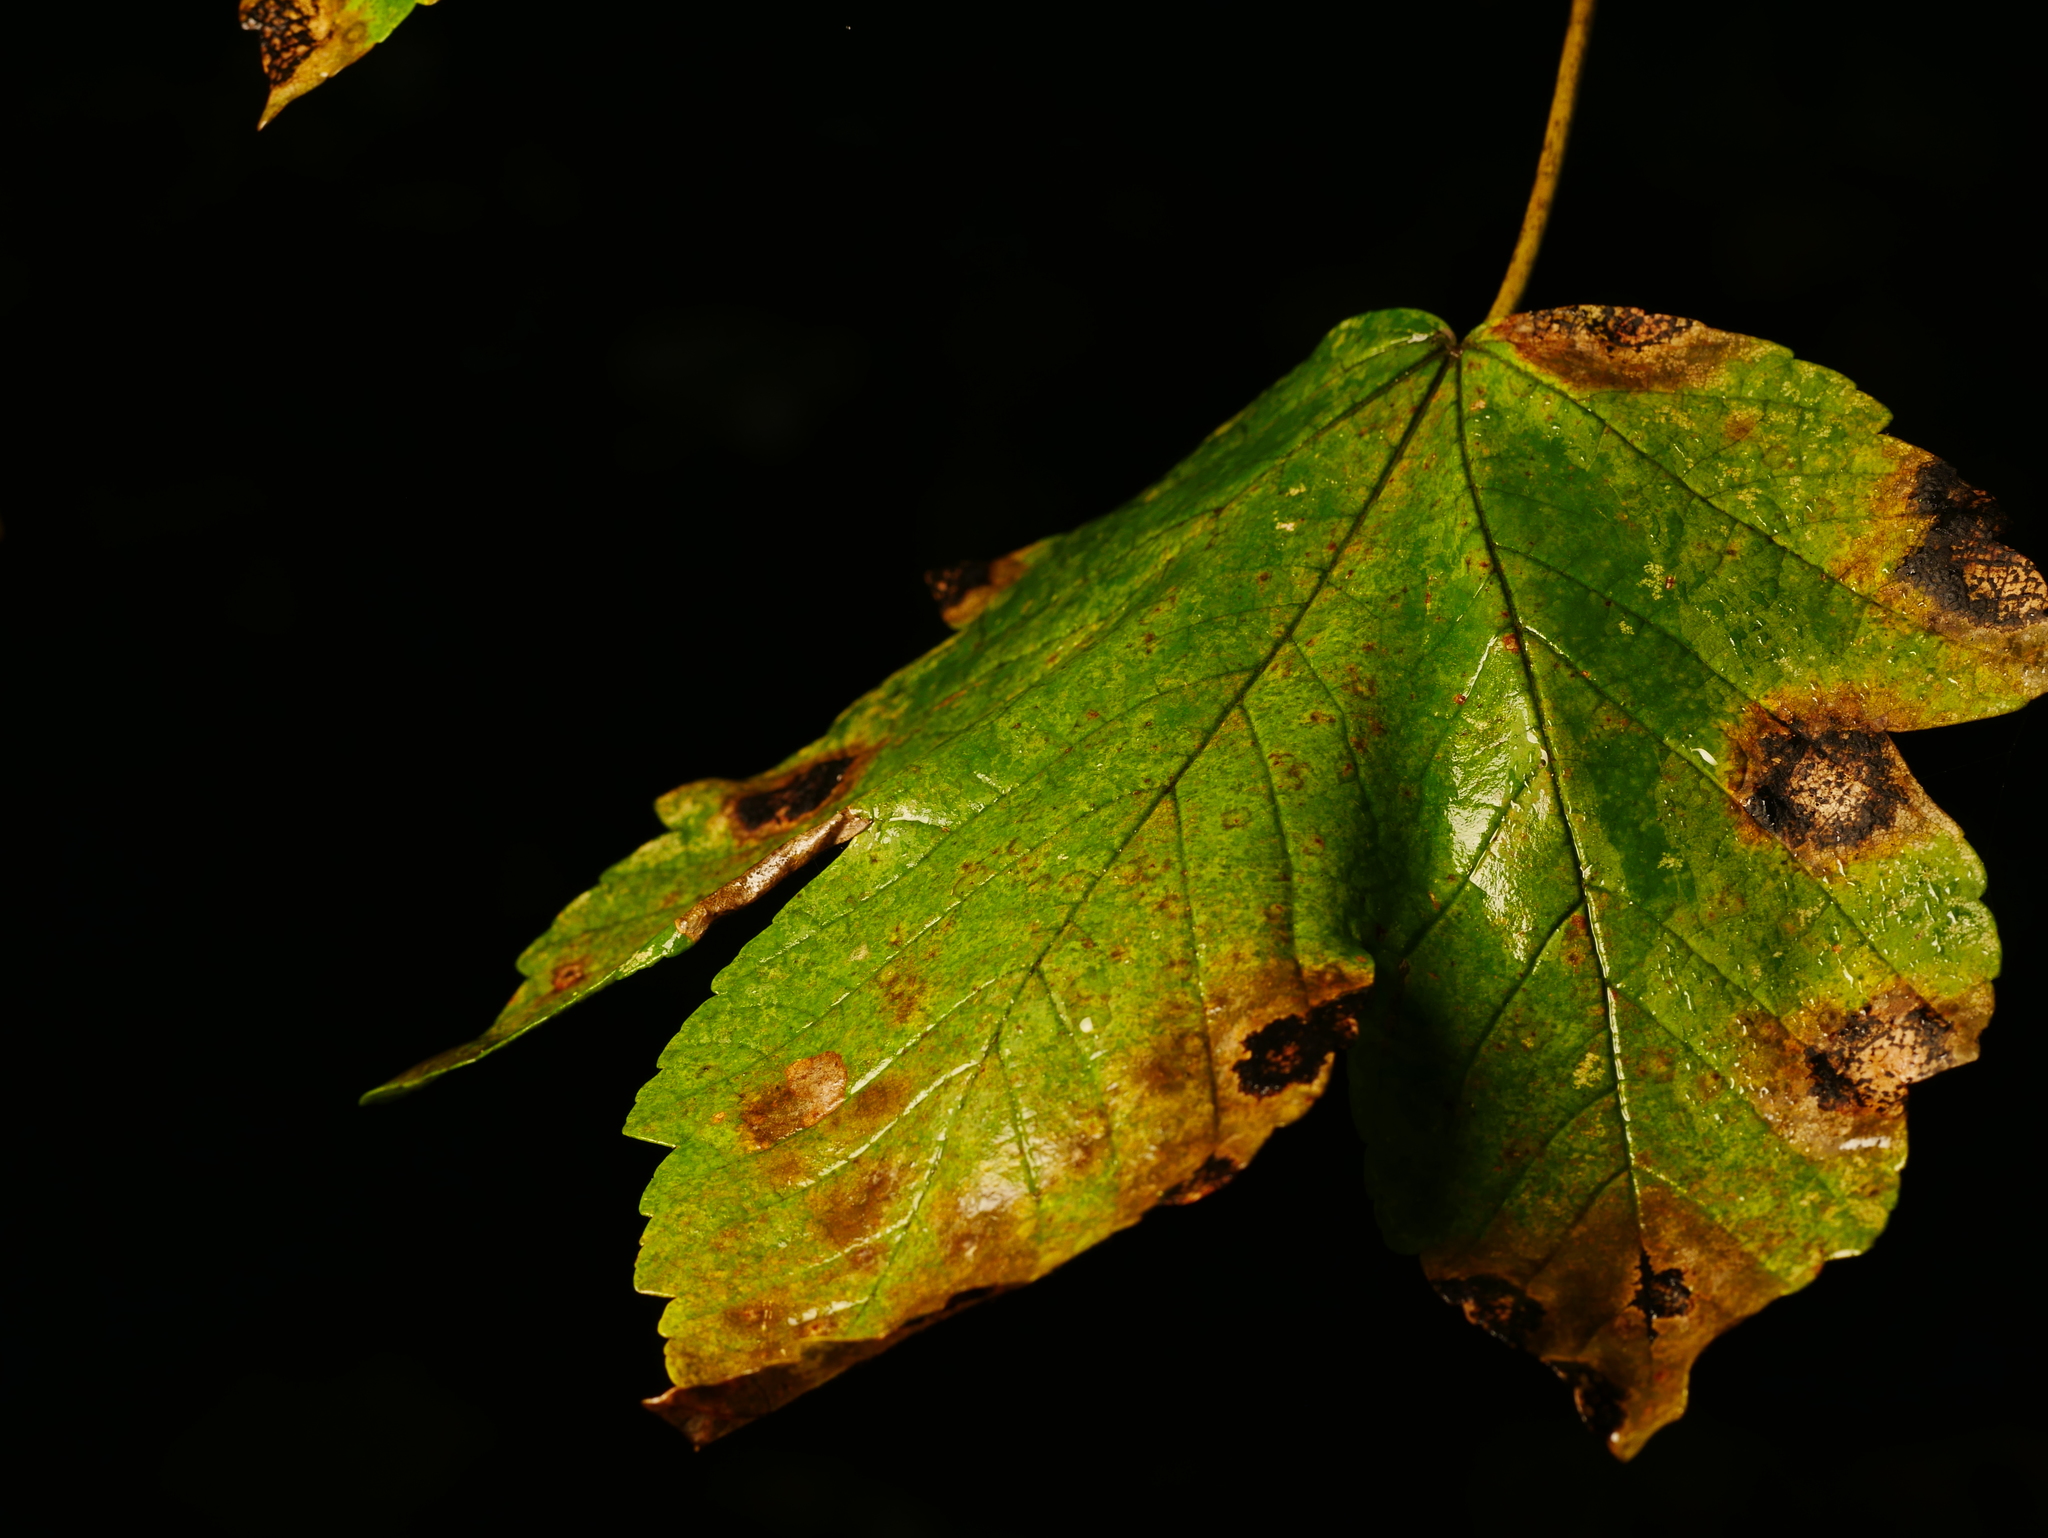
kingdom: Plantae
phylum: Tracheophyta
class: Magnoliopsida
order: Sapindales
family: Sapindaceae
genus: Acer
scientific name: Acer pseudoplatanus
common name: Sycamore
